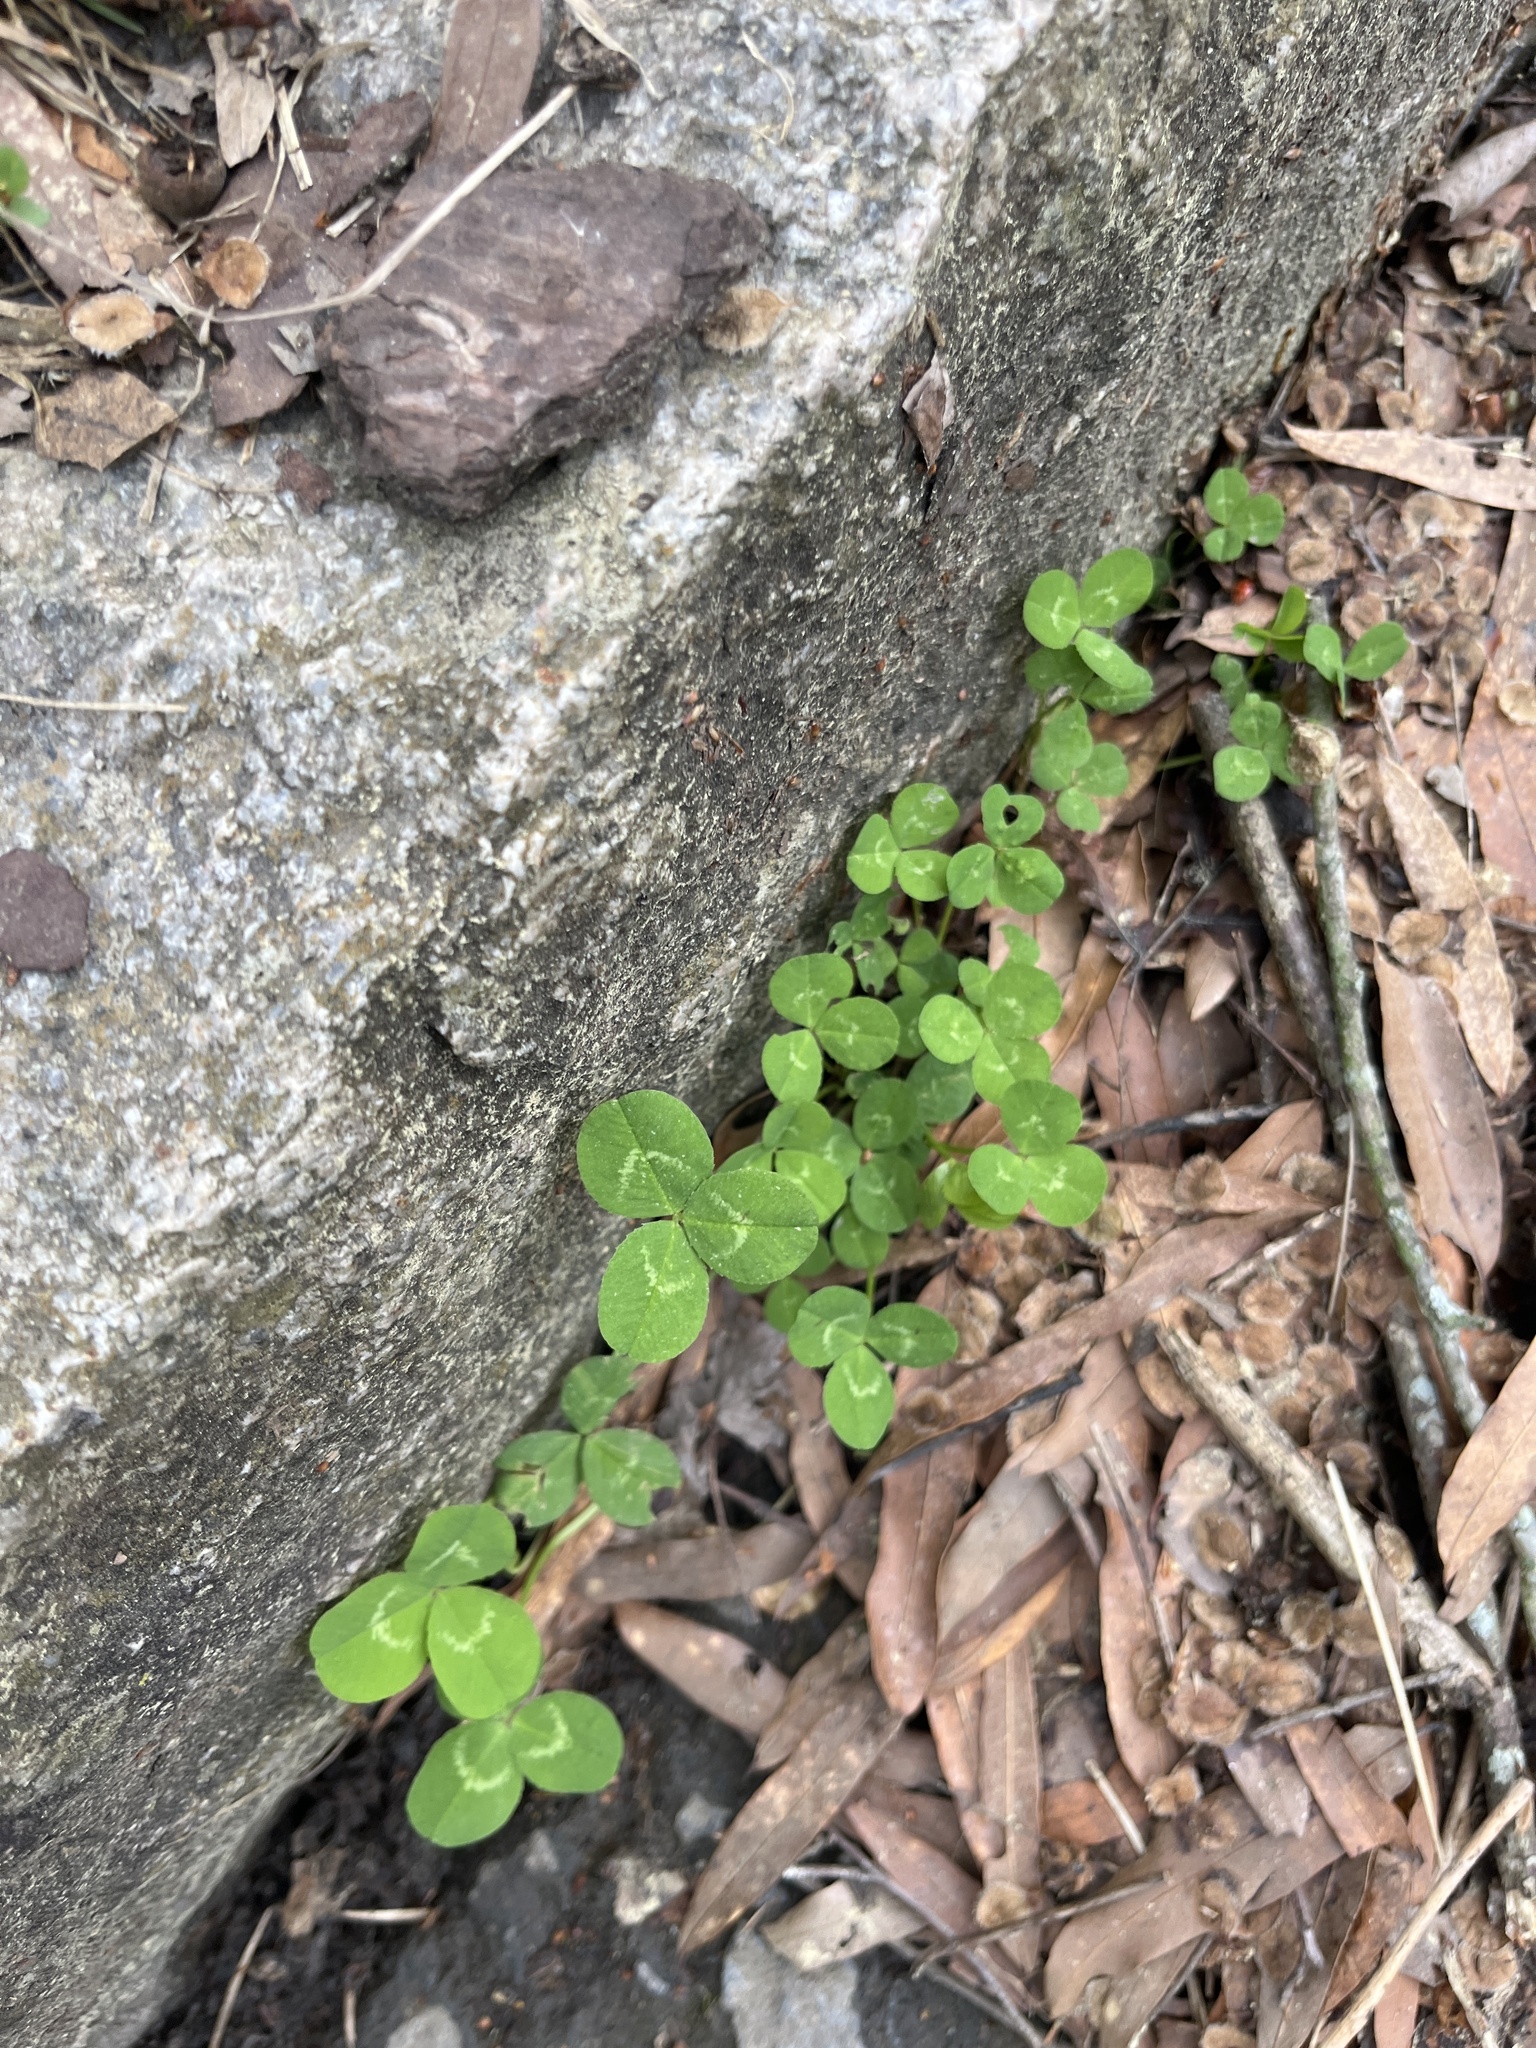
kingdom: Plantae
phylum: Tracheophyta
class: Magnoliopsida
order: Fabales
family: Fabaceae
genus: Trifolium
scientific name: Trifolium repens
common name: White clover
